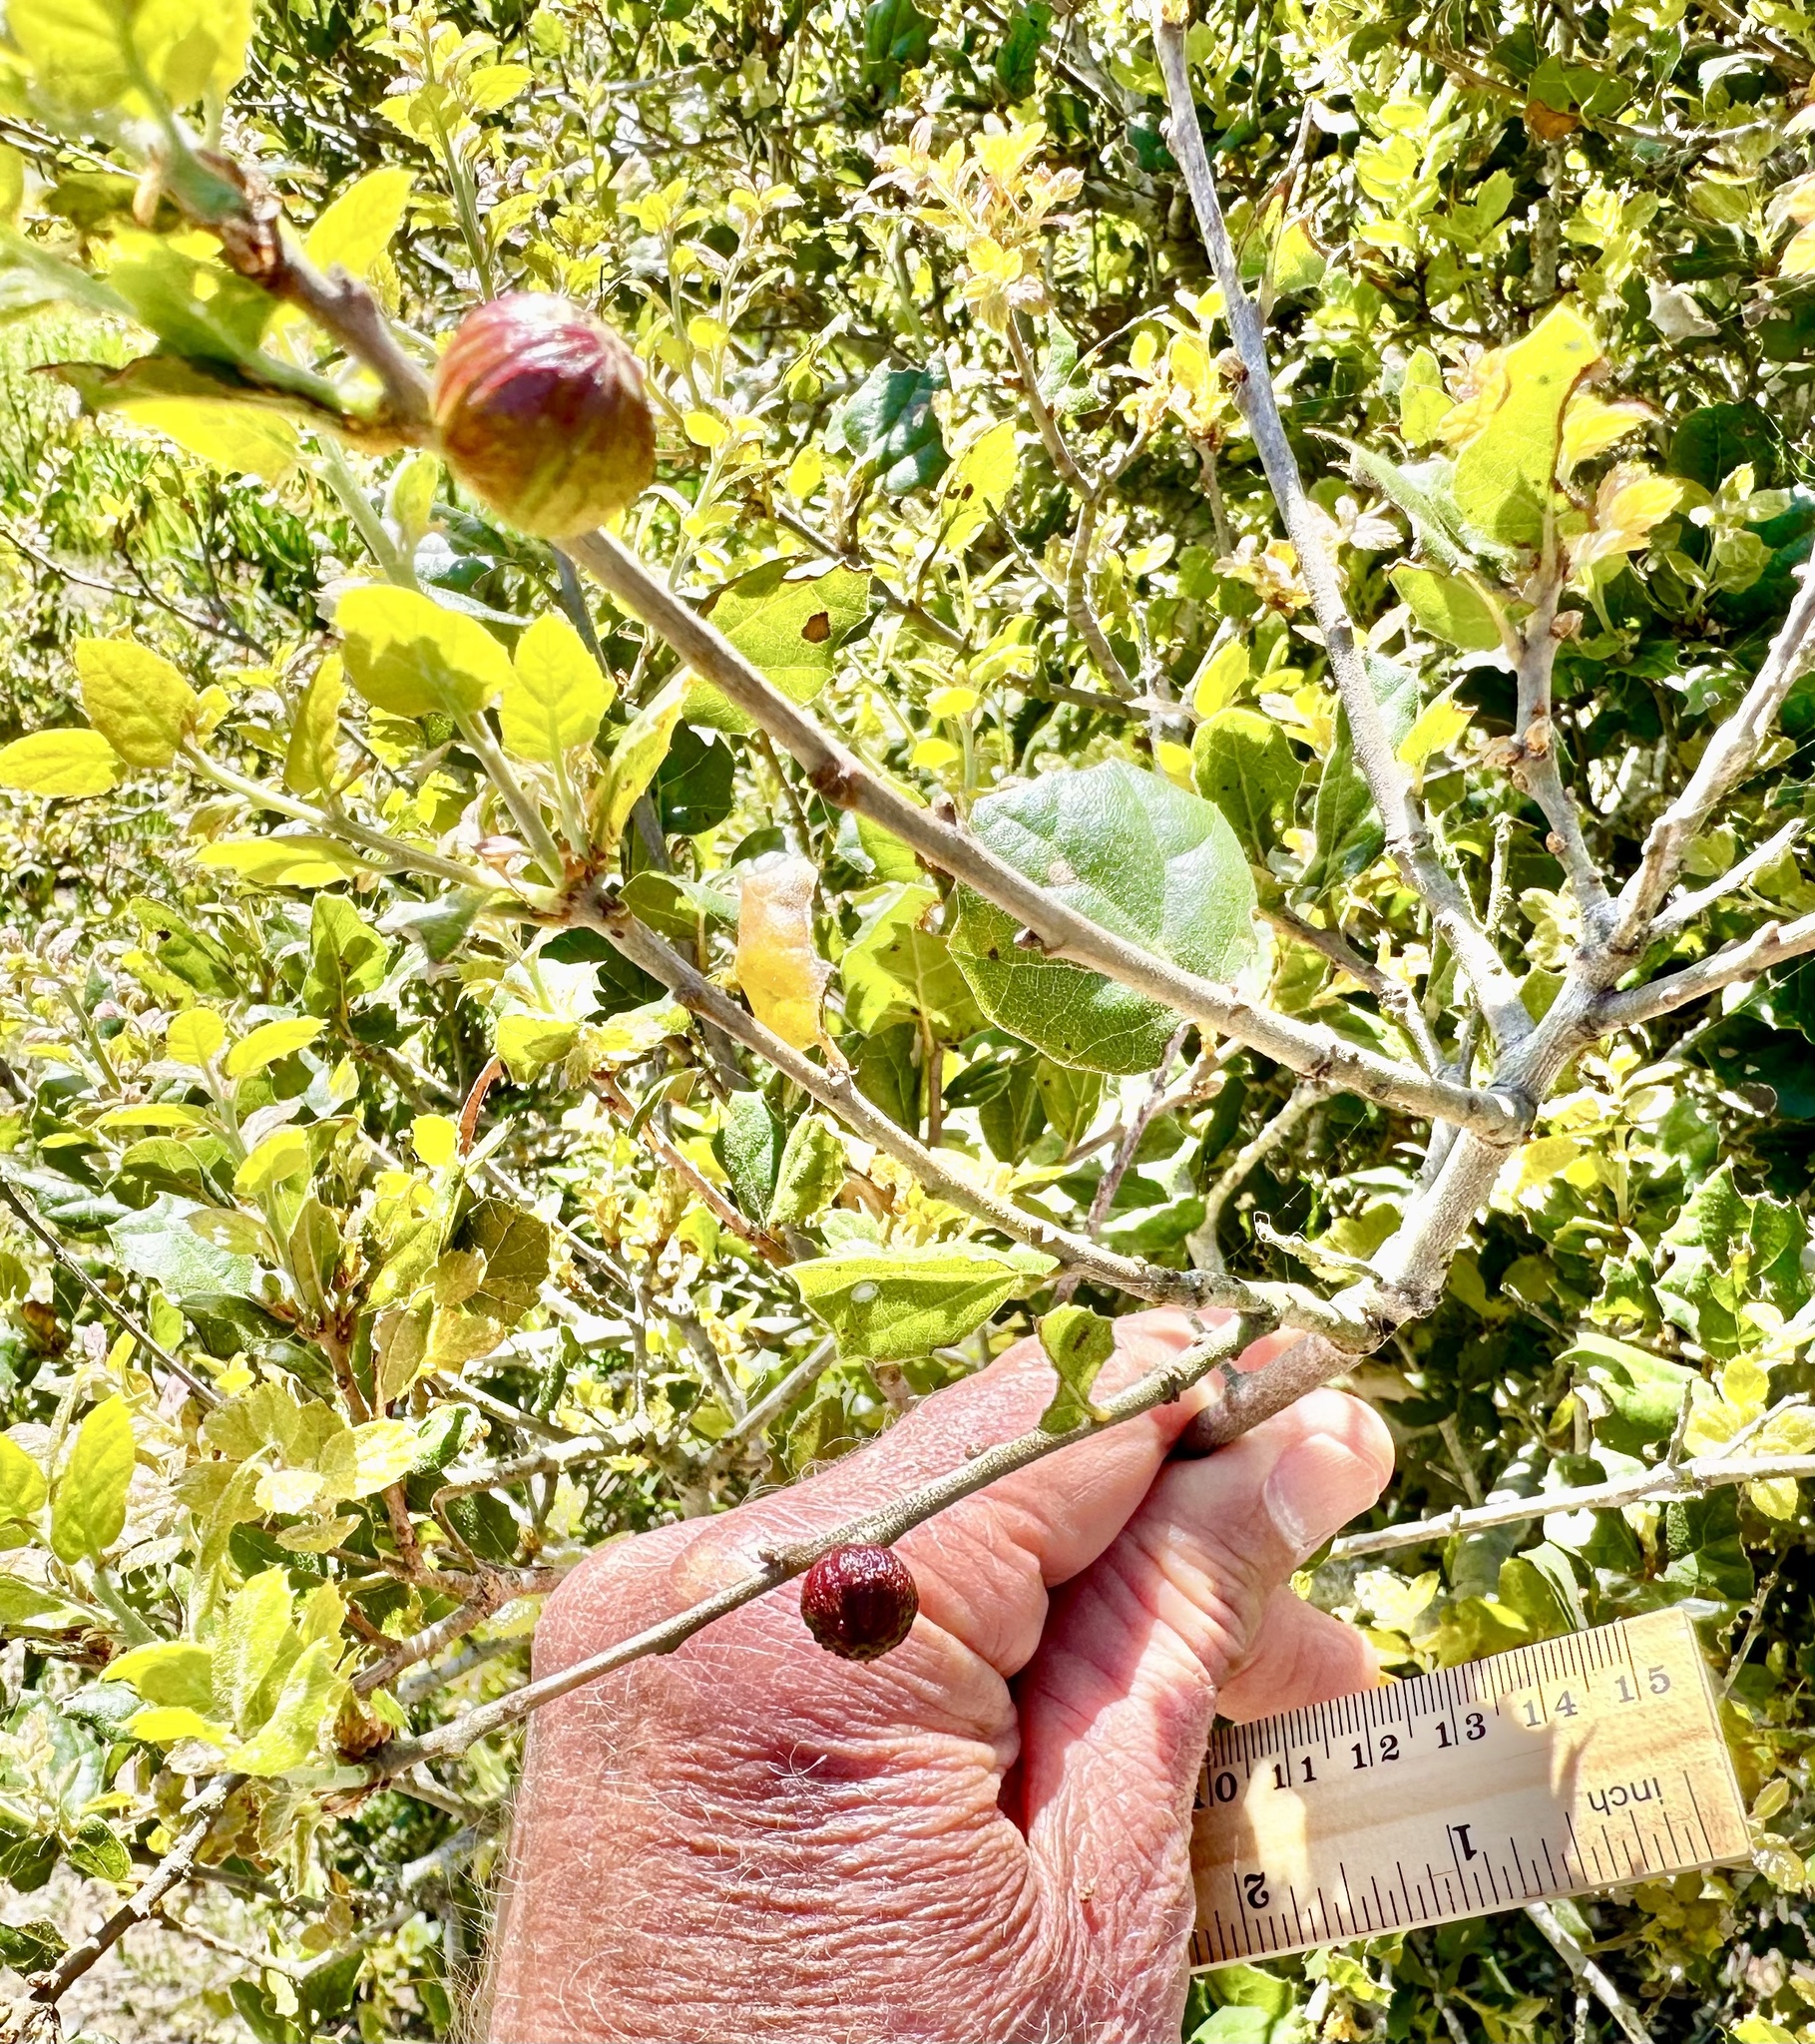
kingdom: Animalia
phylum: Arthropoda
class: Insecta
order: Hymenoptera
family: Cynipidae
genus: Amphibolips
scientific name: Amphibolips quercuspomiformis
